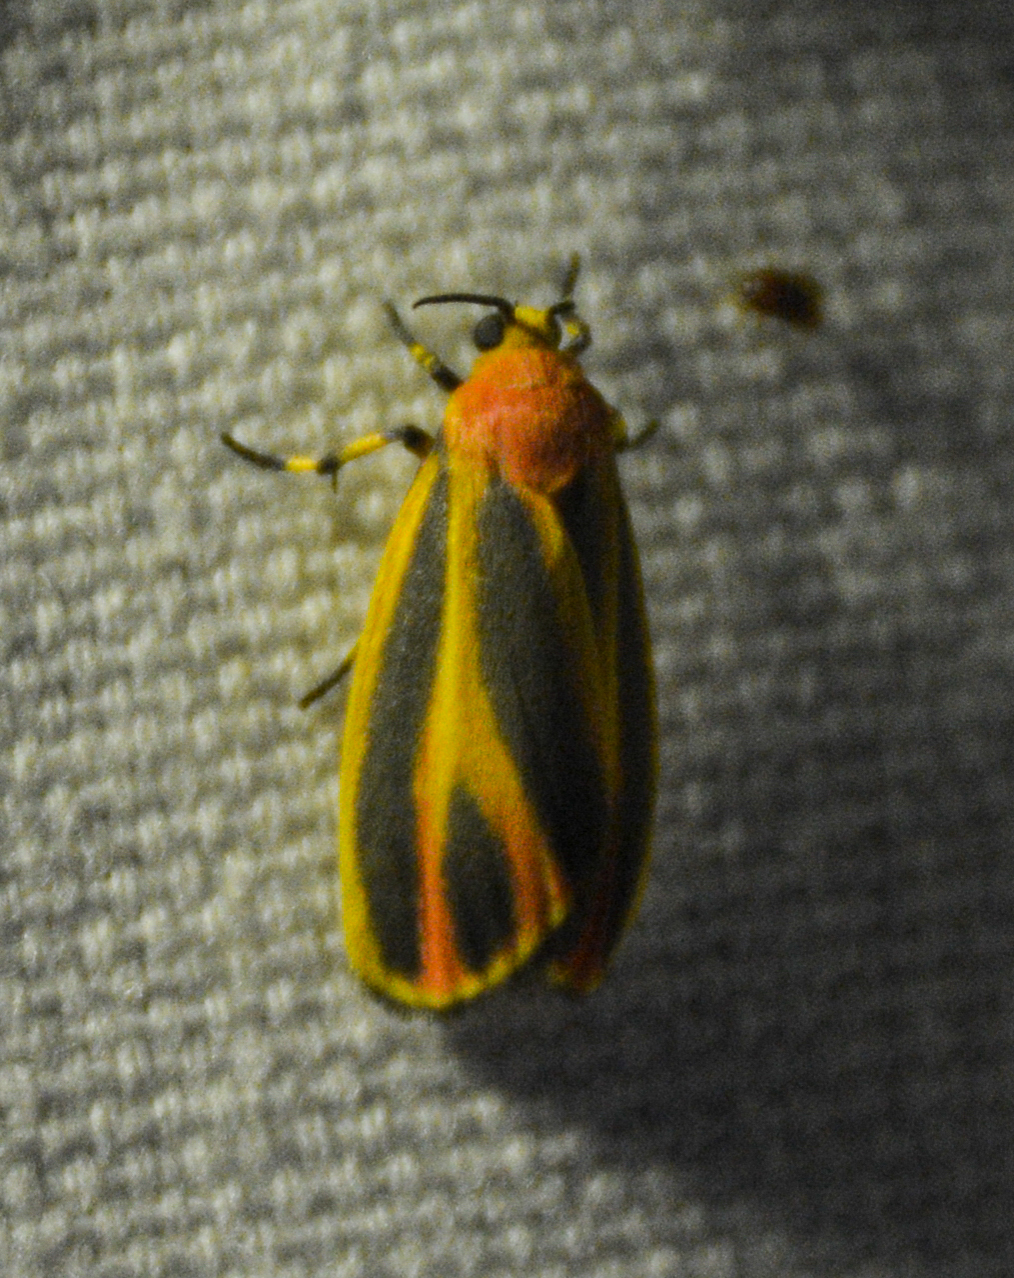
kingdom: Animalia
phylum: Arthropoda
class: Insecta
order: Lepidoptera
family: Erebidae
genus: Hypoprepia
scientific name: Hypoprepia fucosa
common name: Painted lichen moth
